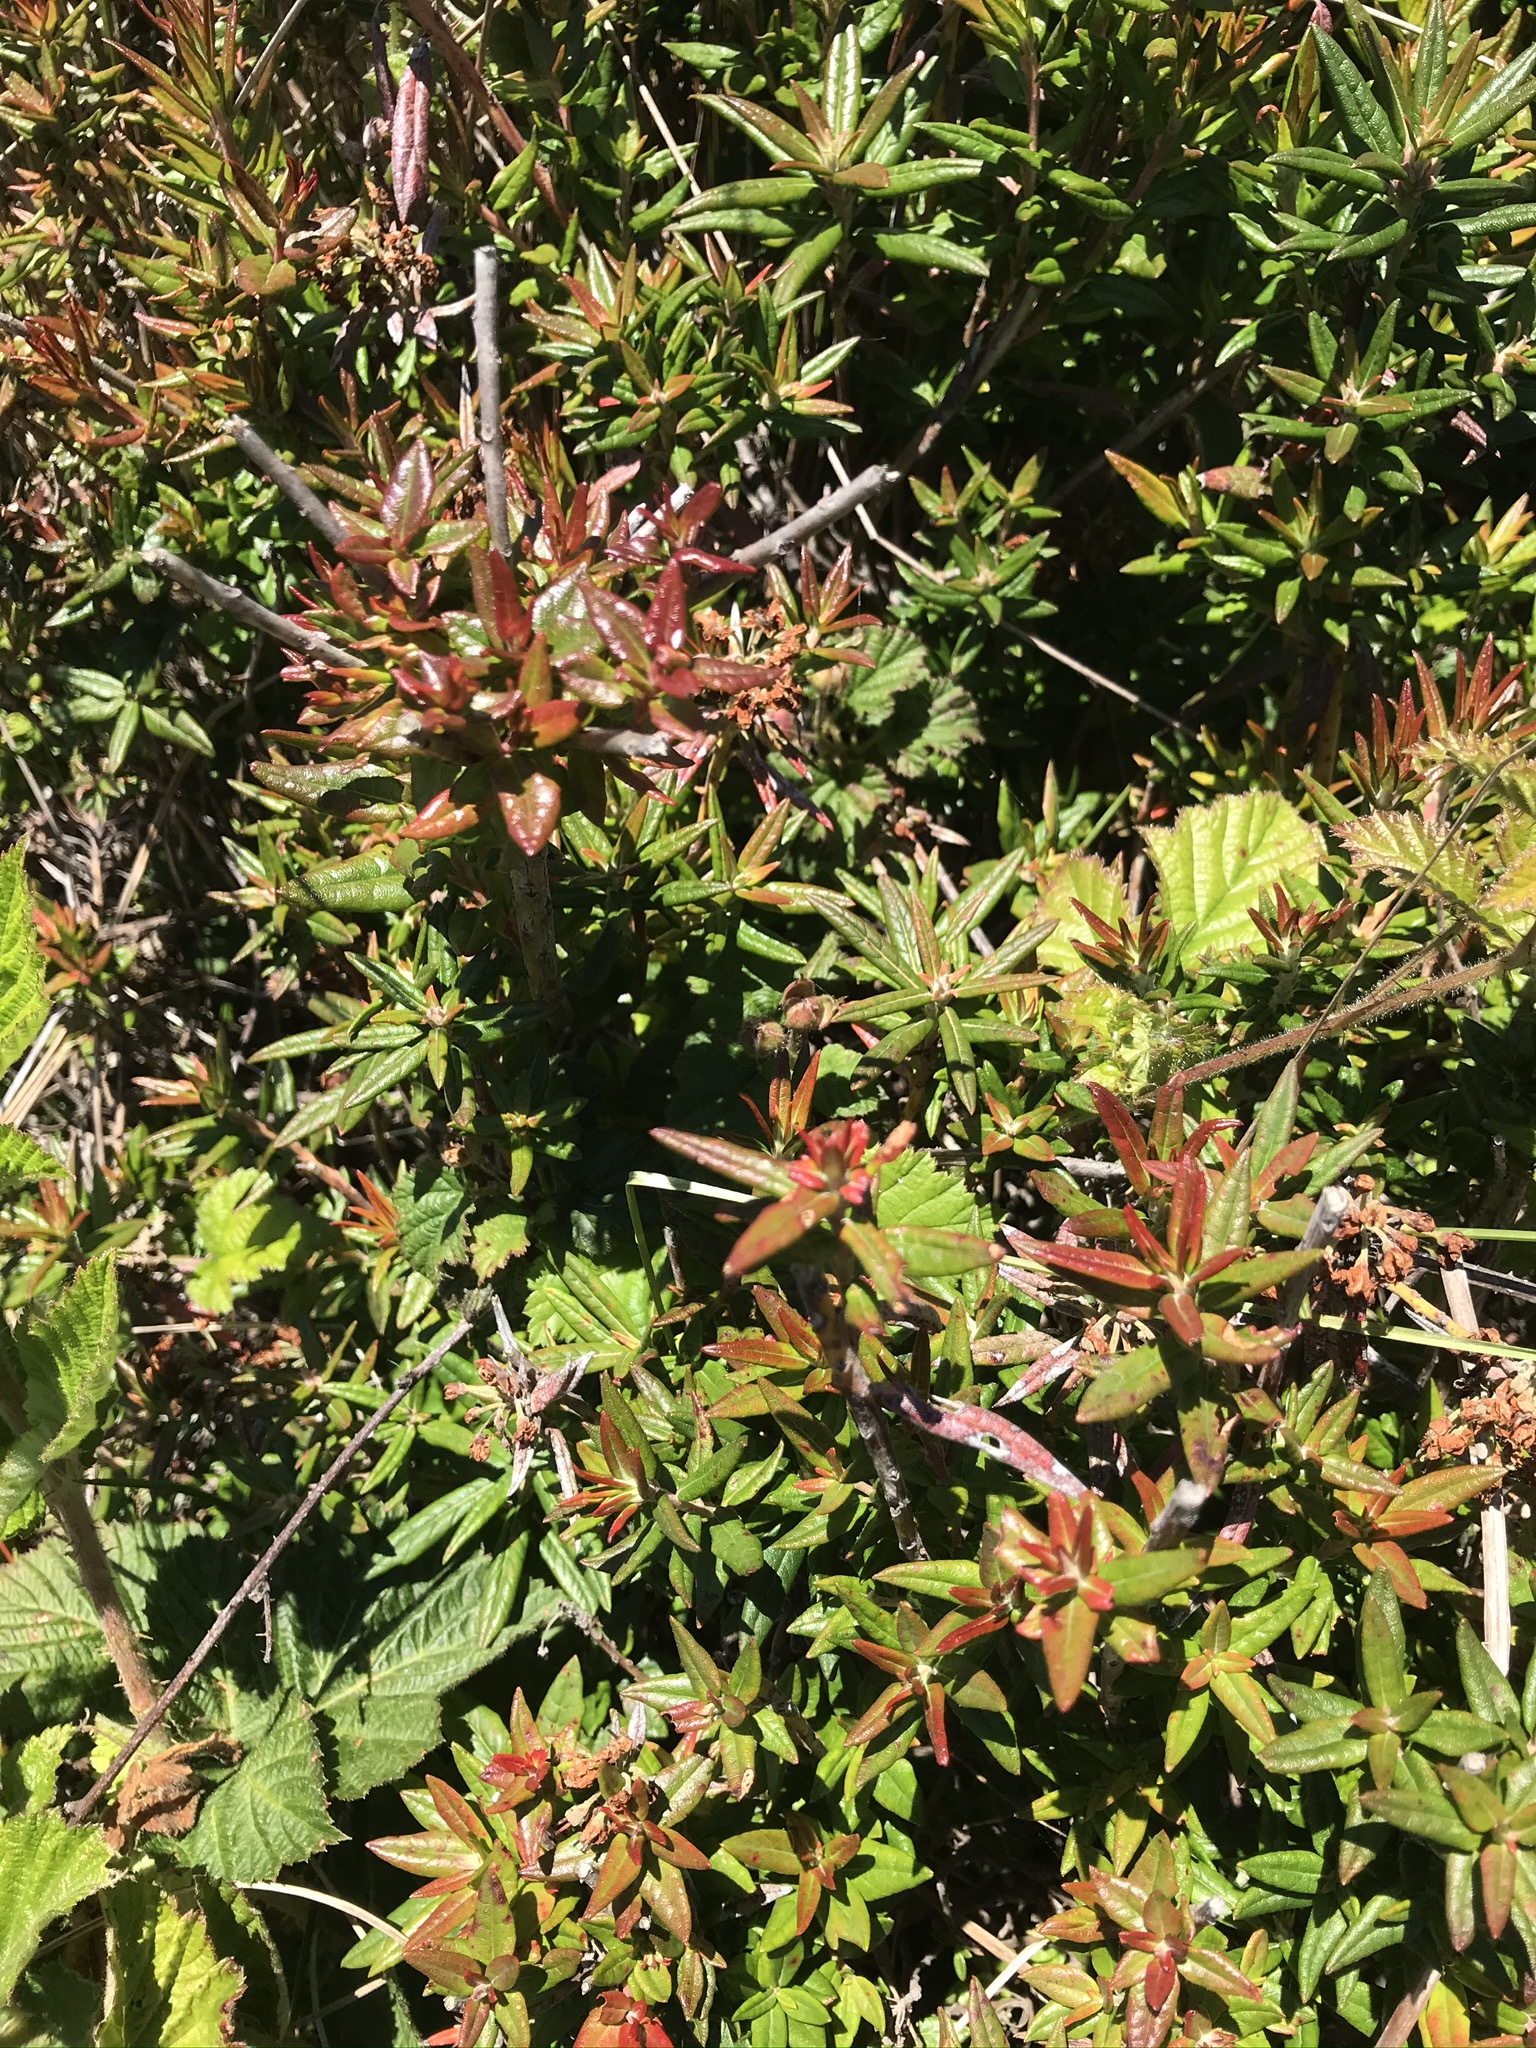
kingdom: Plantae
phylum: Tracheophyta
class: Magnoliopsida
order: Ericales
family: Ericaceae
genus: Rhododendron
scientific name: Rhododendron columbianum
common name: Western labrador tea
